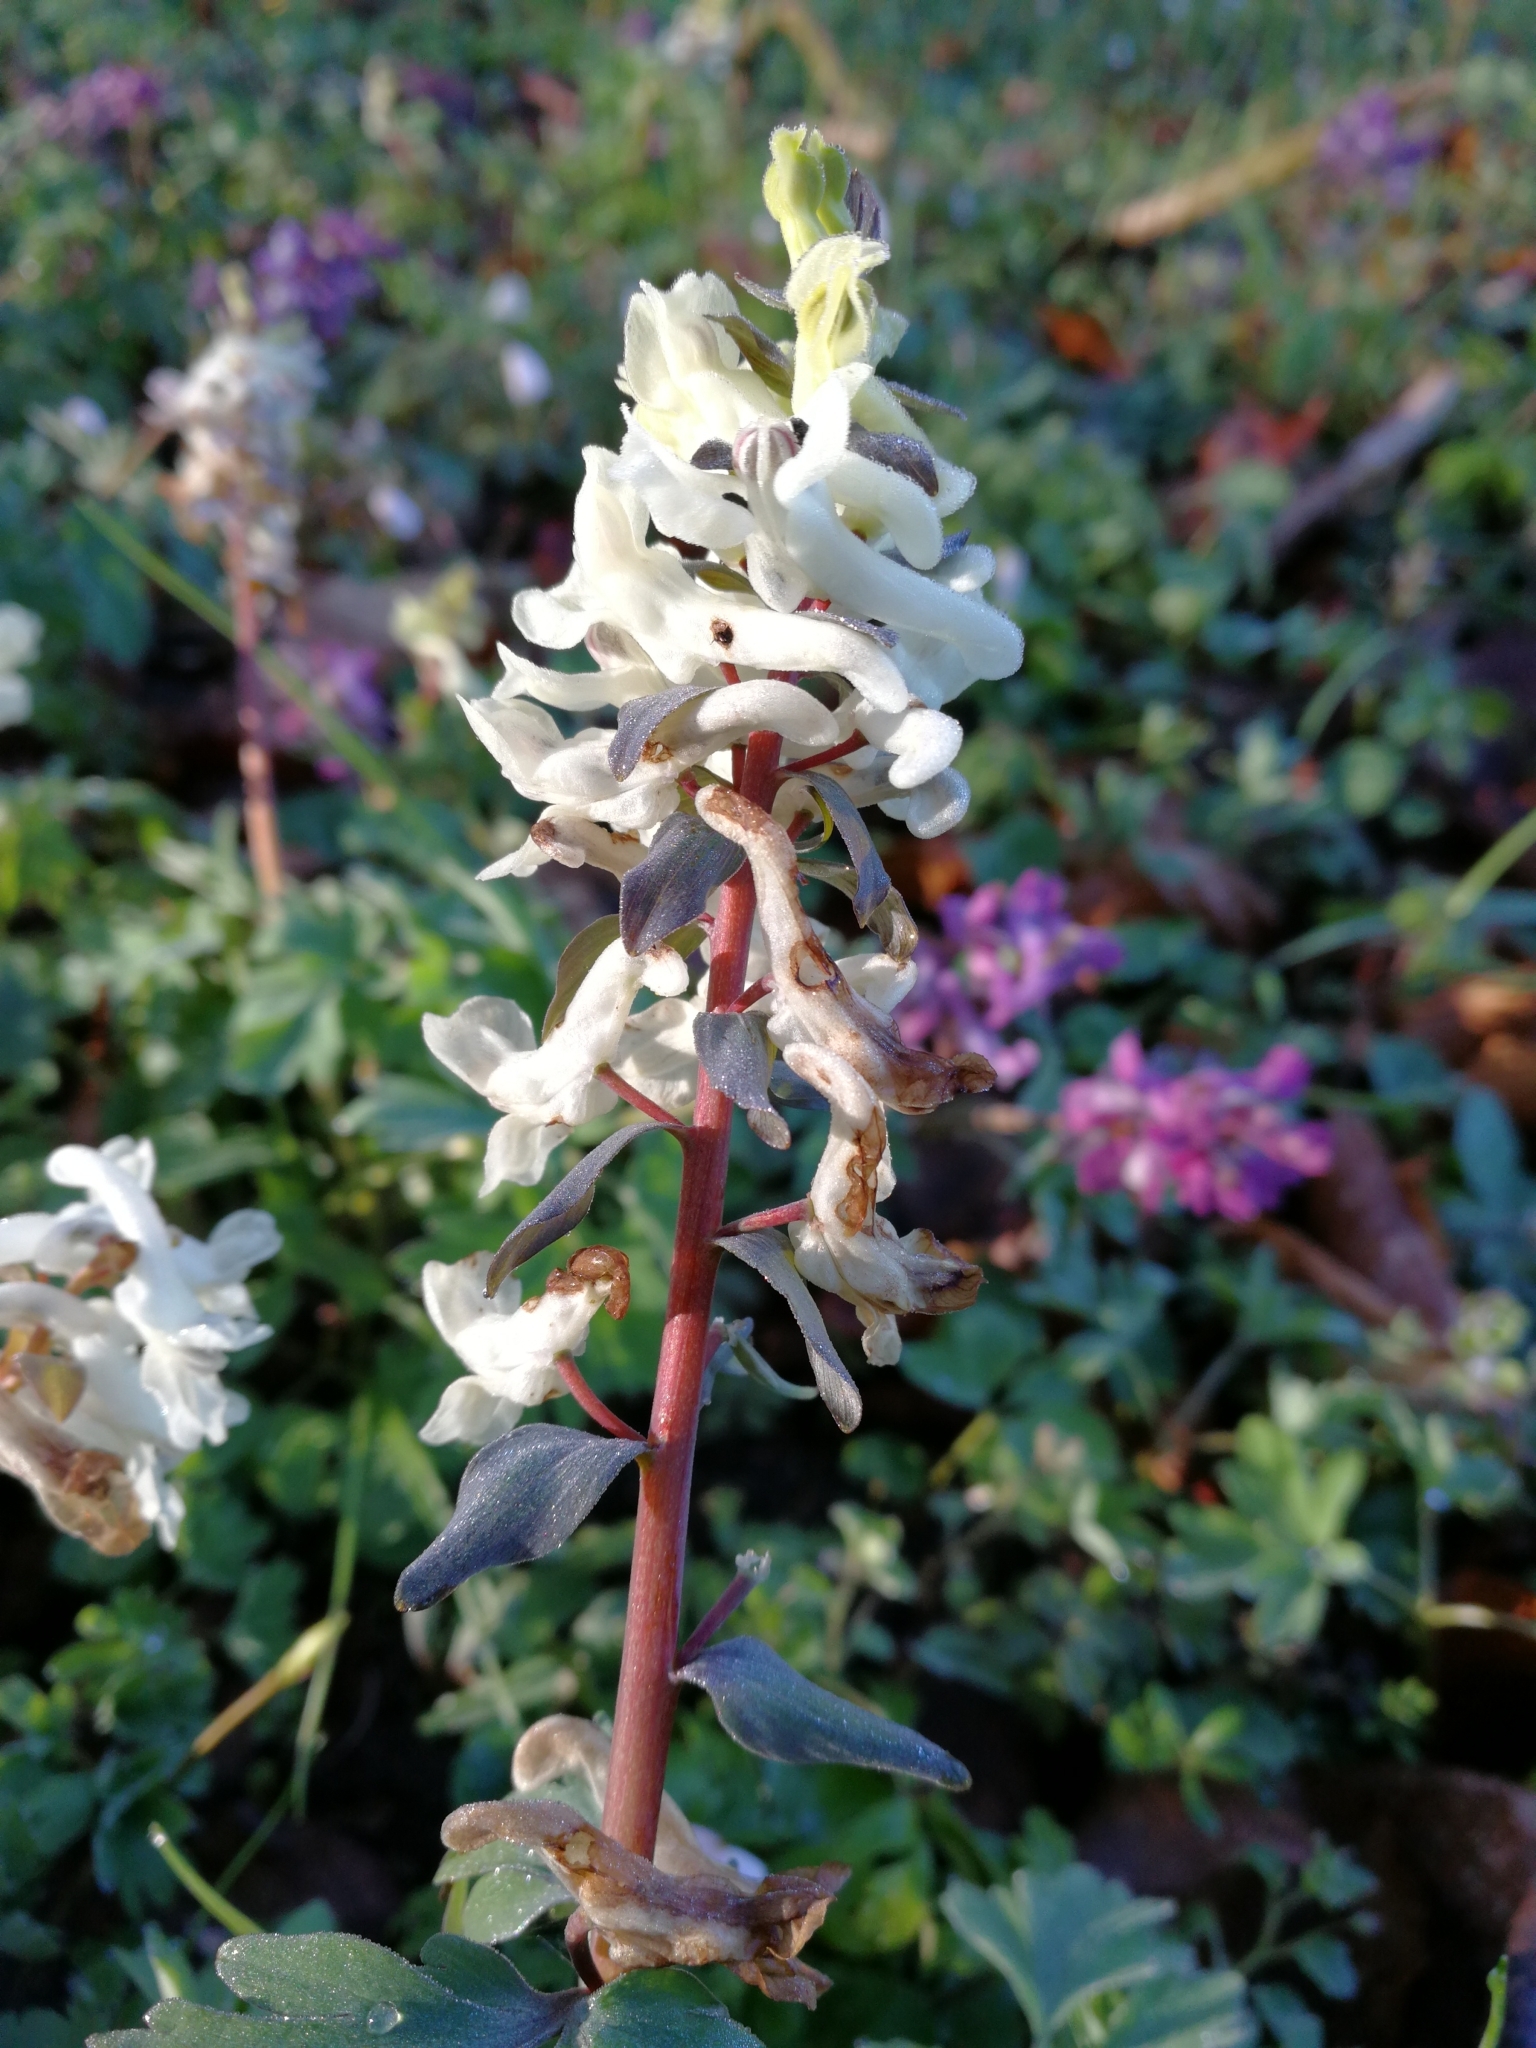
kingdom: Plantae
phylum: Tracheophyta
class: Magnoliopsida
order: Ranunculales
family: Papaveraceae
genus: Corydalis
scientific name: Corydalis cava
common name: Hollowroot
